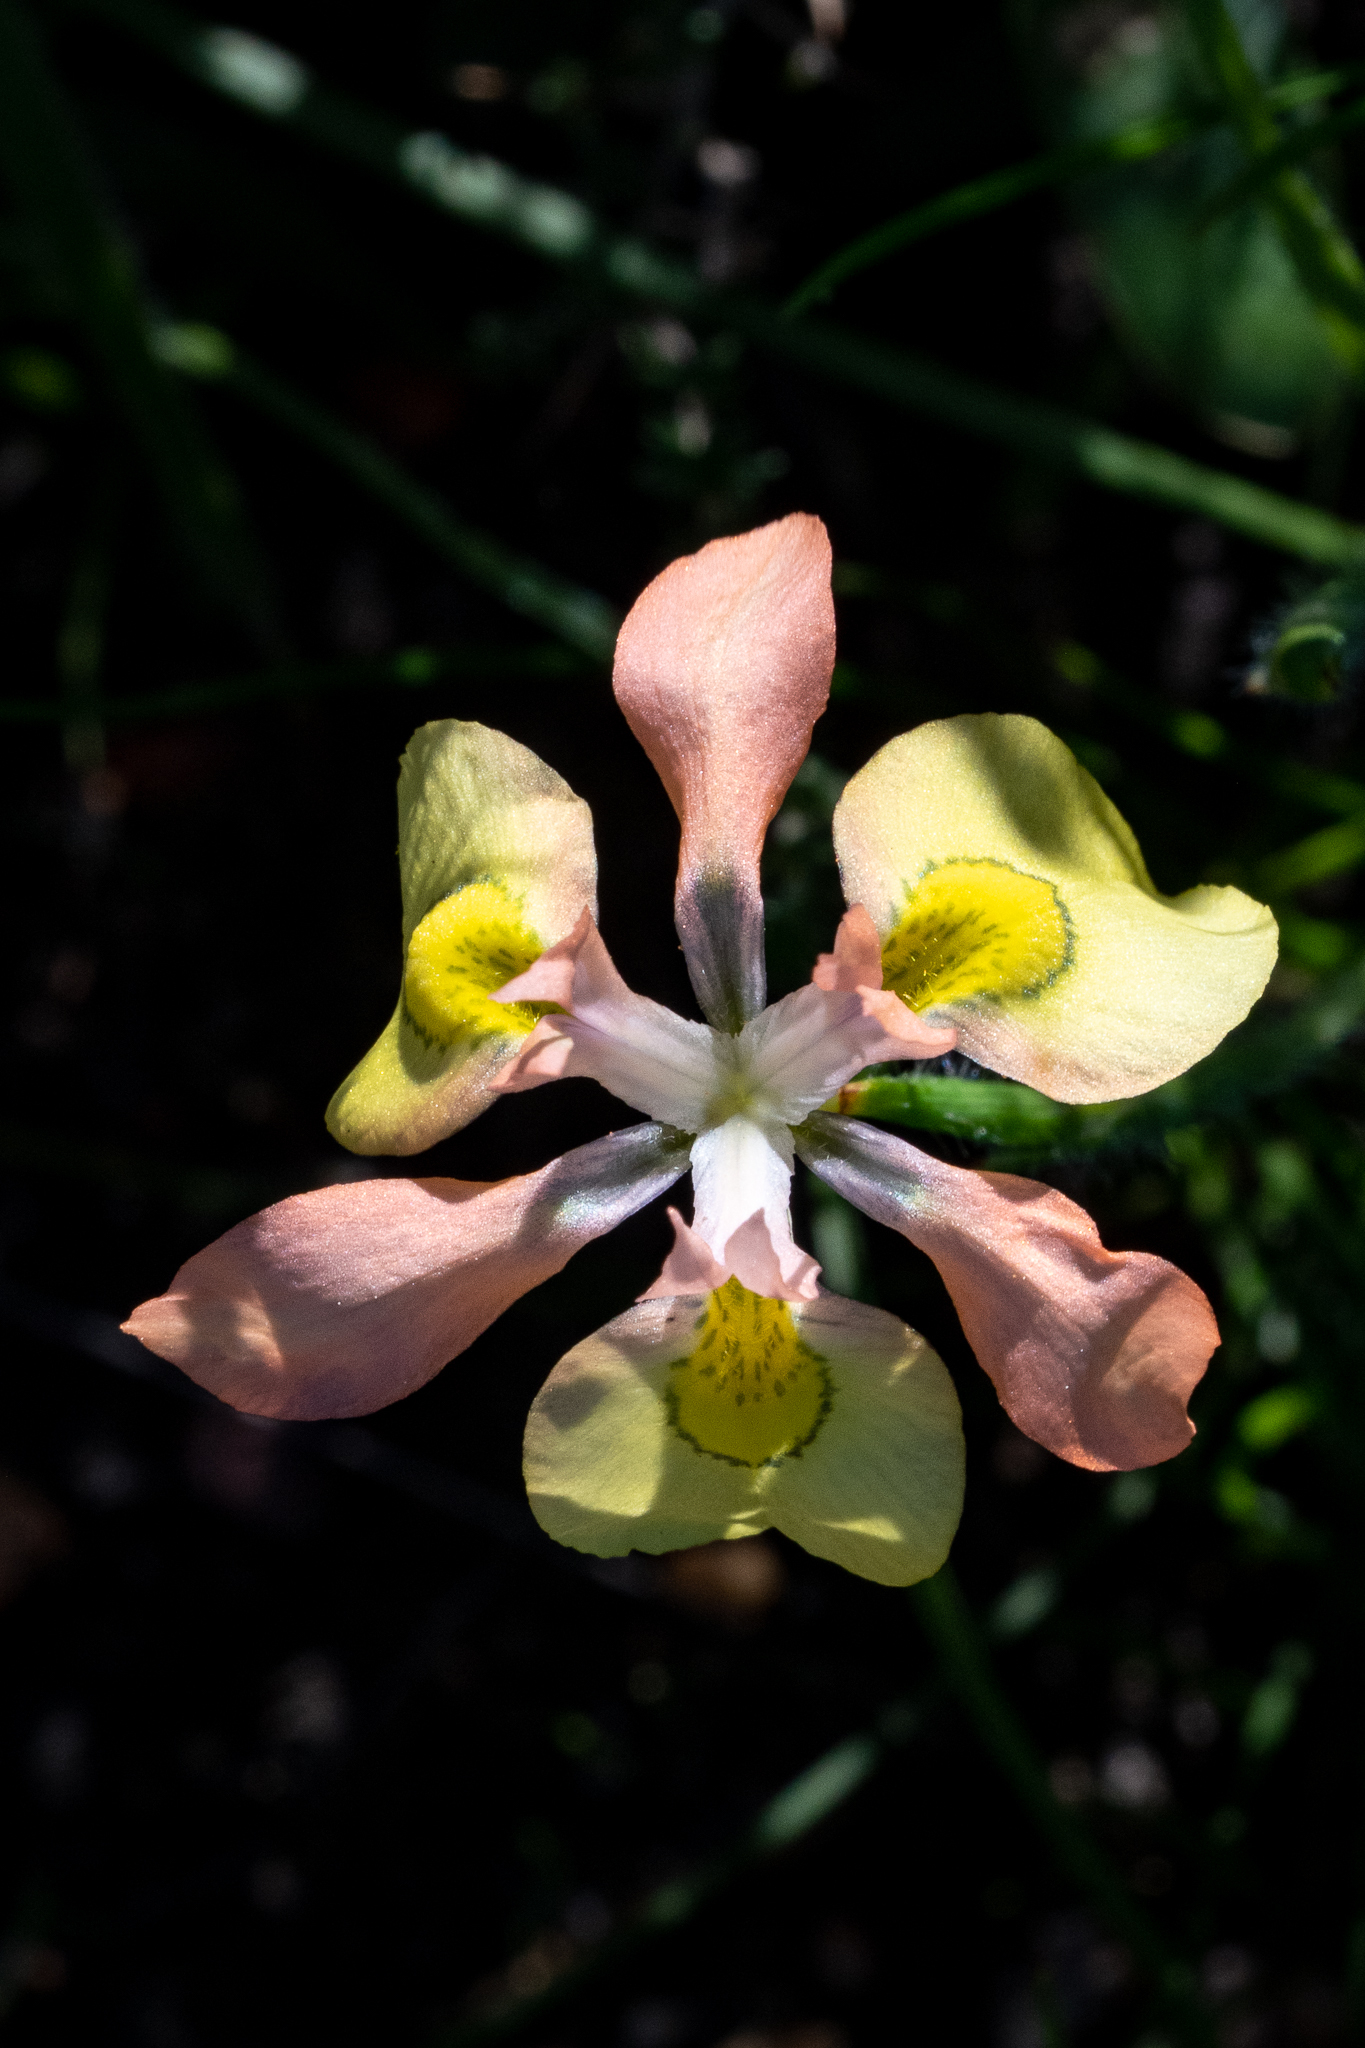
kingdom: Plantae
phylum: Tracheophyta
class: Liliopsida
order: Asparagales
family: Iridaceae
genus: Moraea
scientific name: Moraea papilionacea
